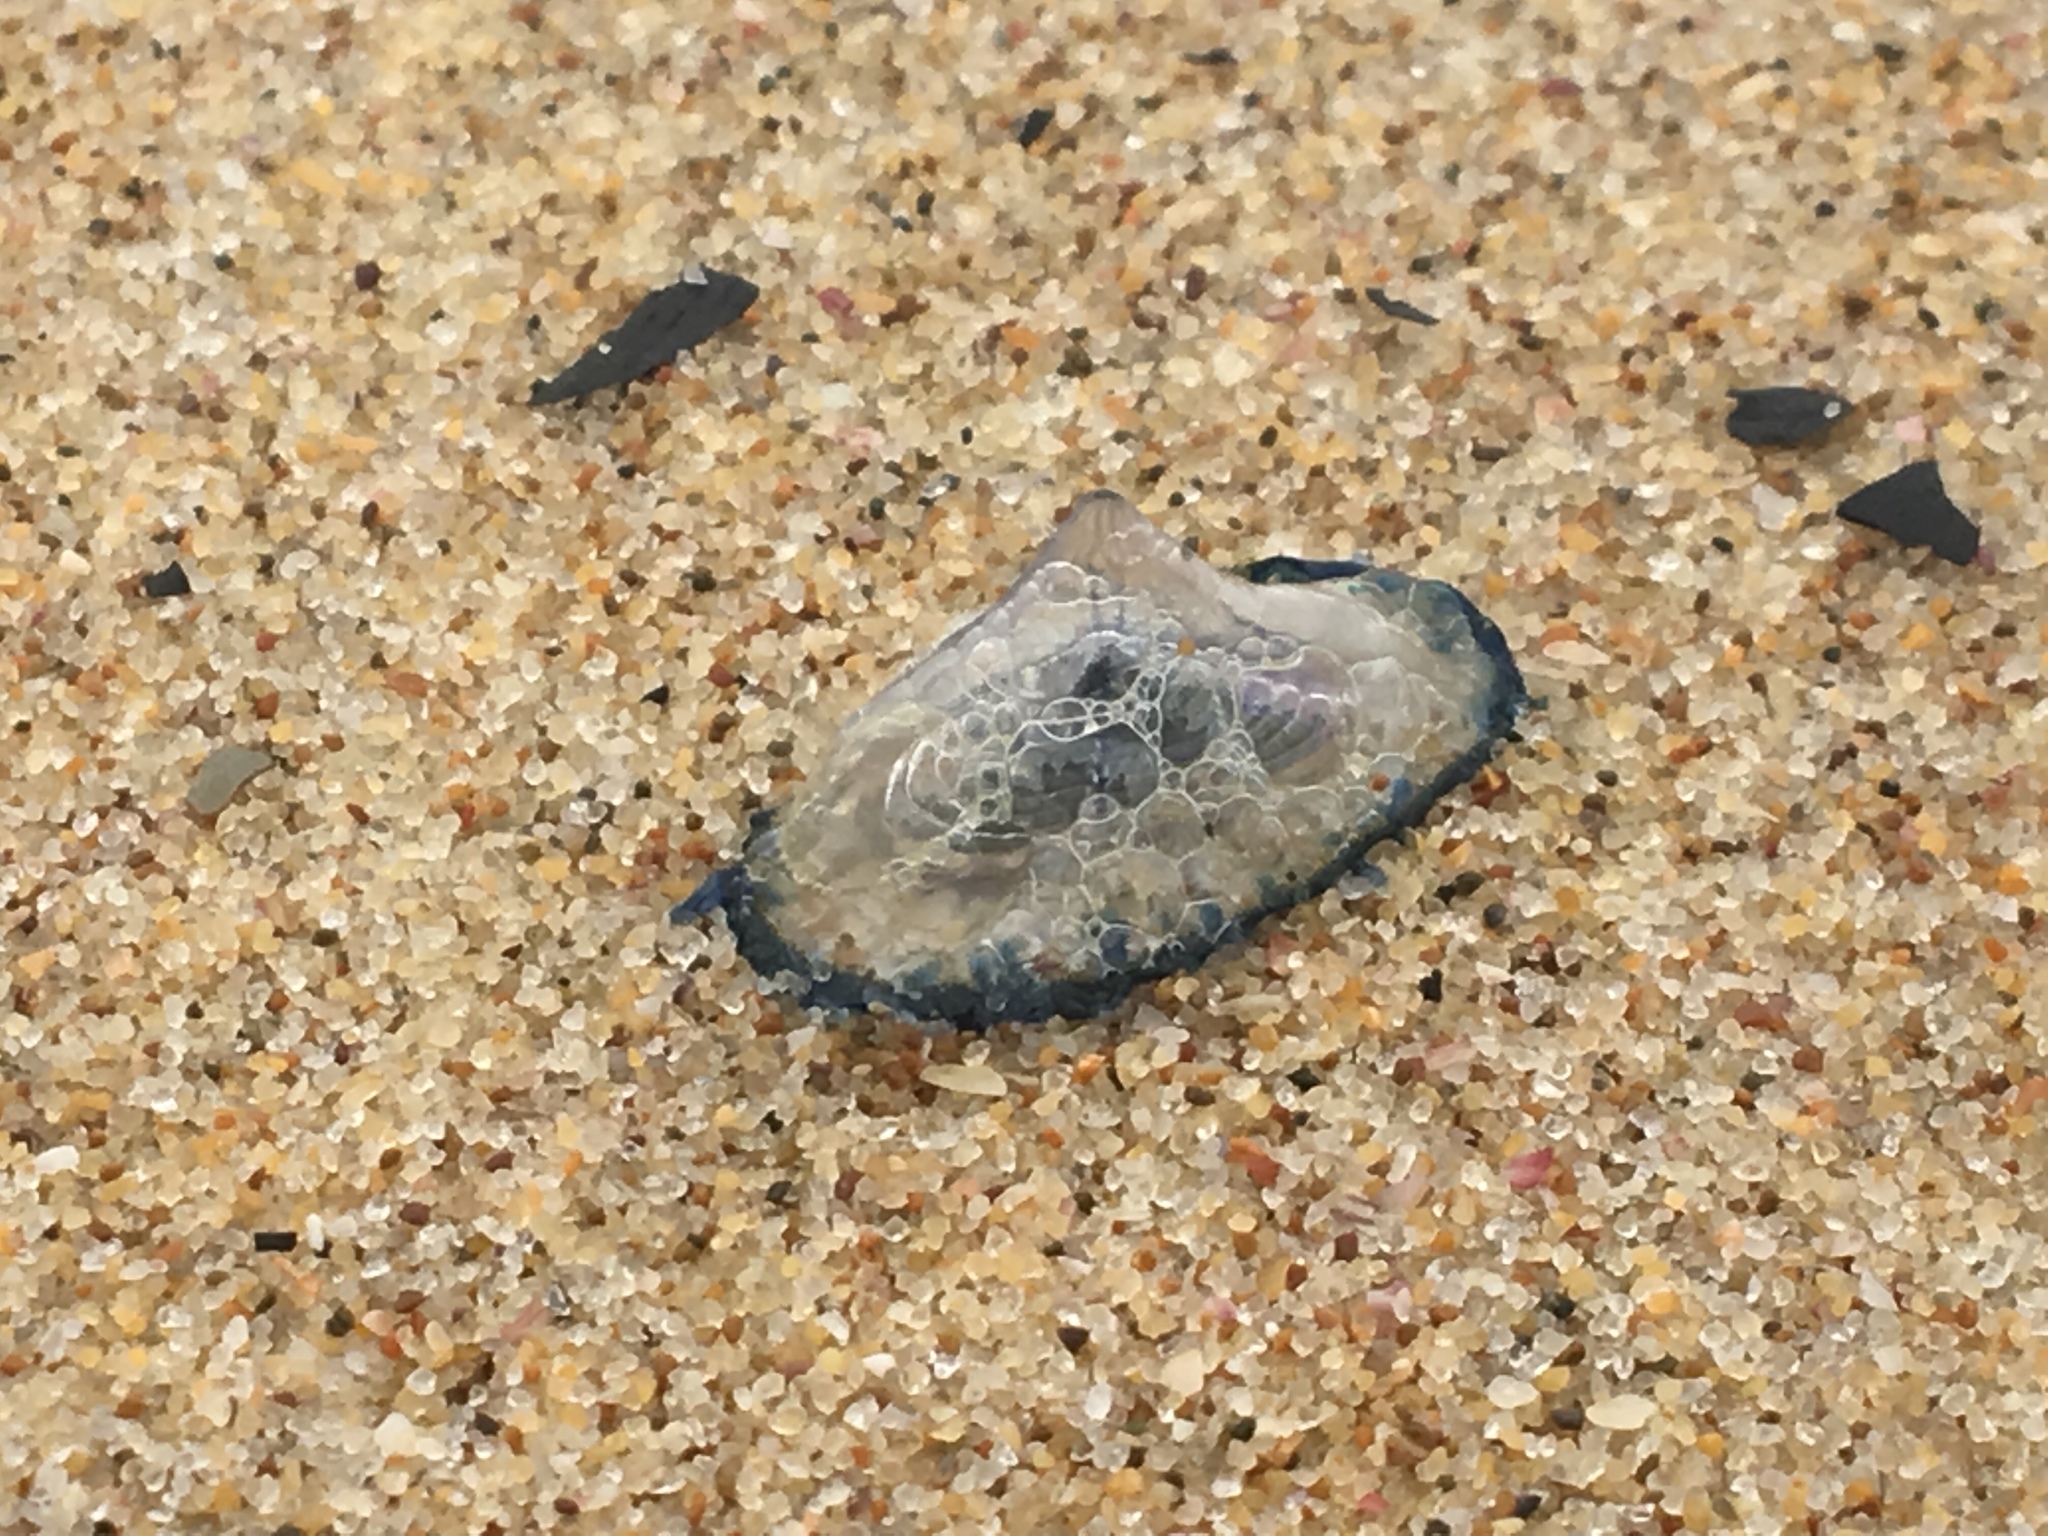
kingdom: Animalia
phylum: Cnidaria
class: Hydrozoa
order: Anthoathecata
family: Porpitidae
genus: Velella
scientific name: Velella velella
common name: By-the-wind-sailor
